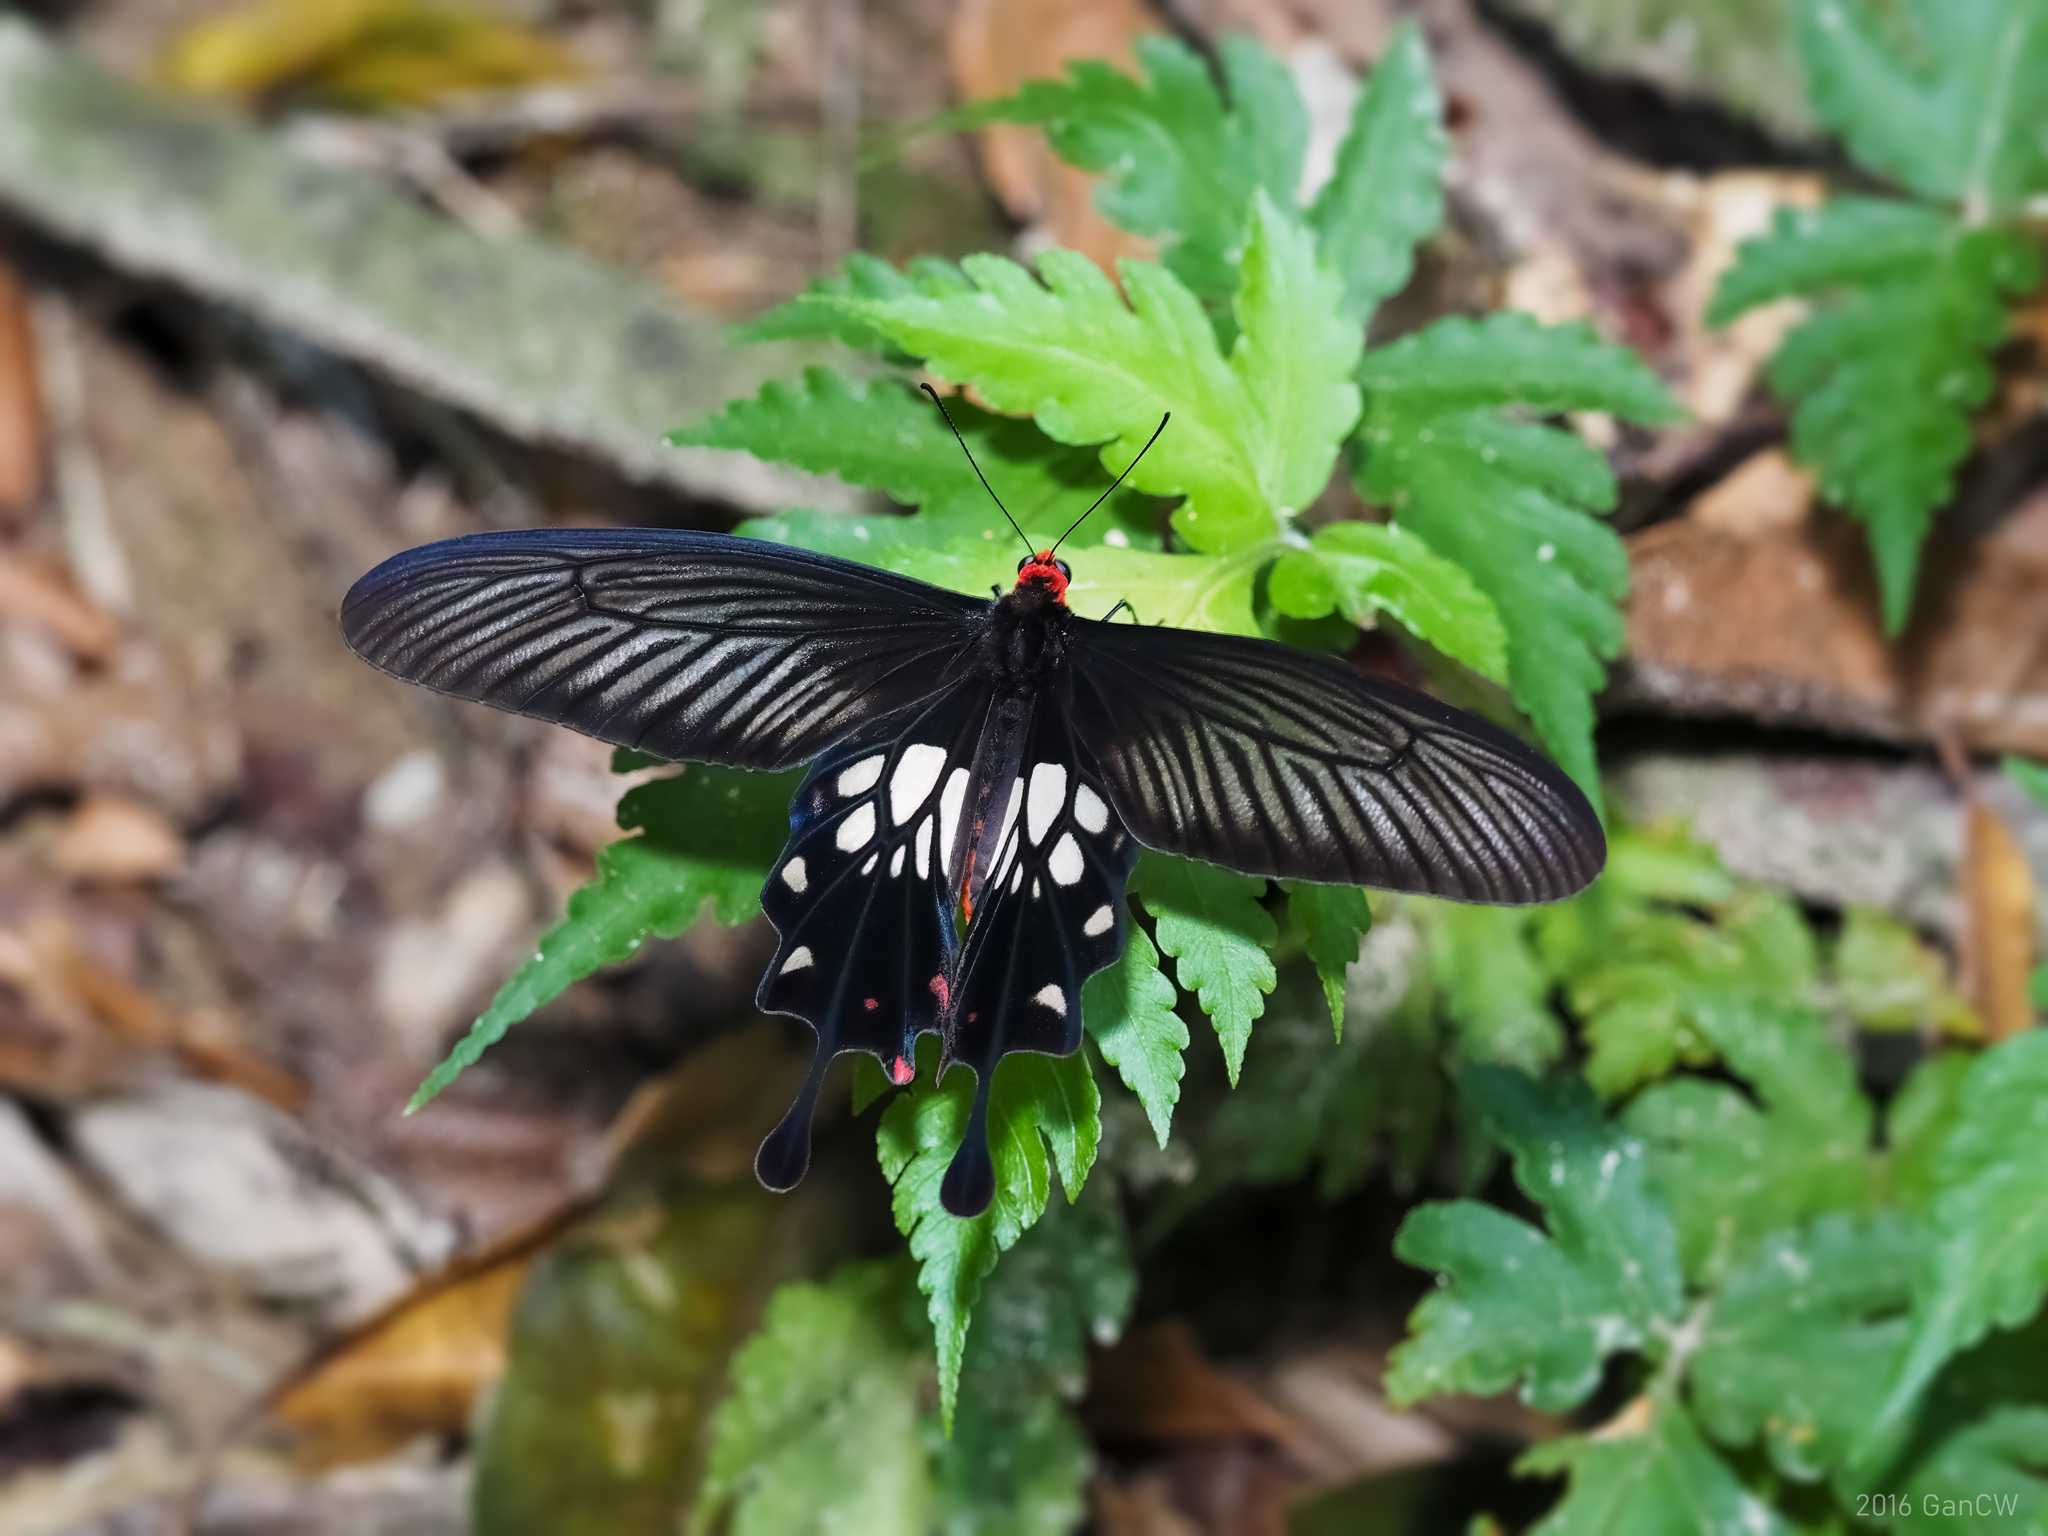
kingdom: Animalia
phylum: Arthropoda
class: Insecta
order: Lepidoptera
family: Papilionidae
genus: Losaria
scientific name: Losaria
